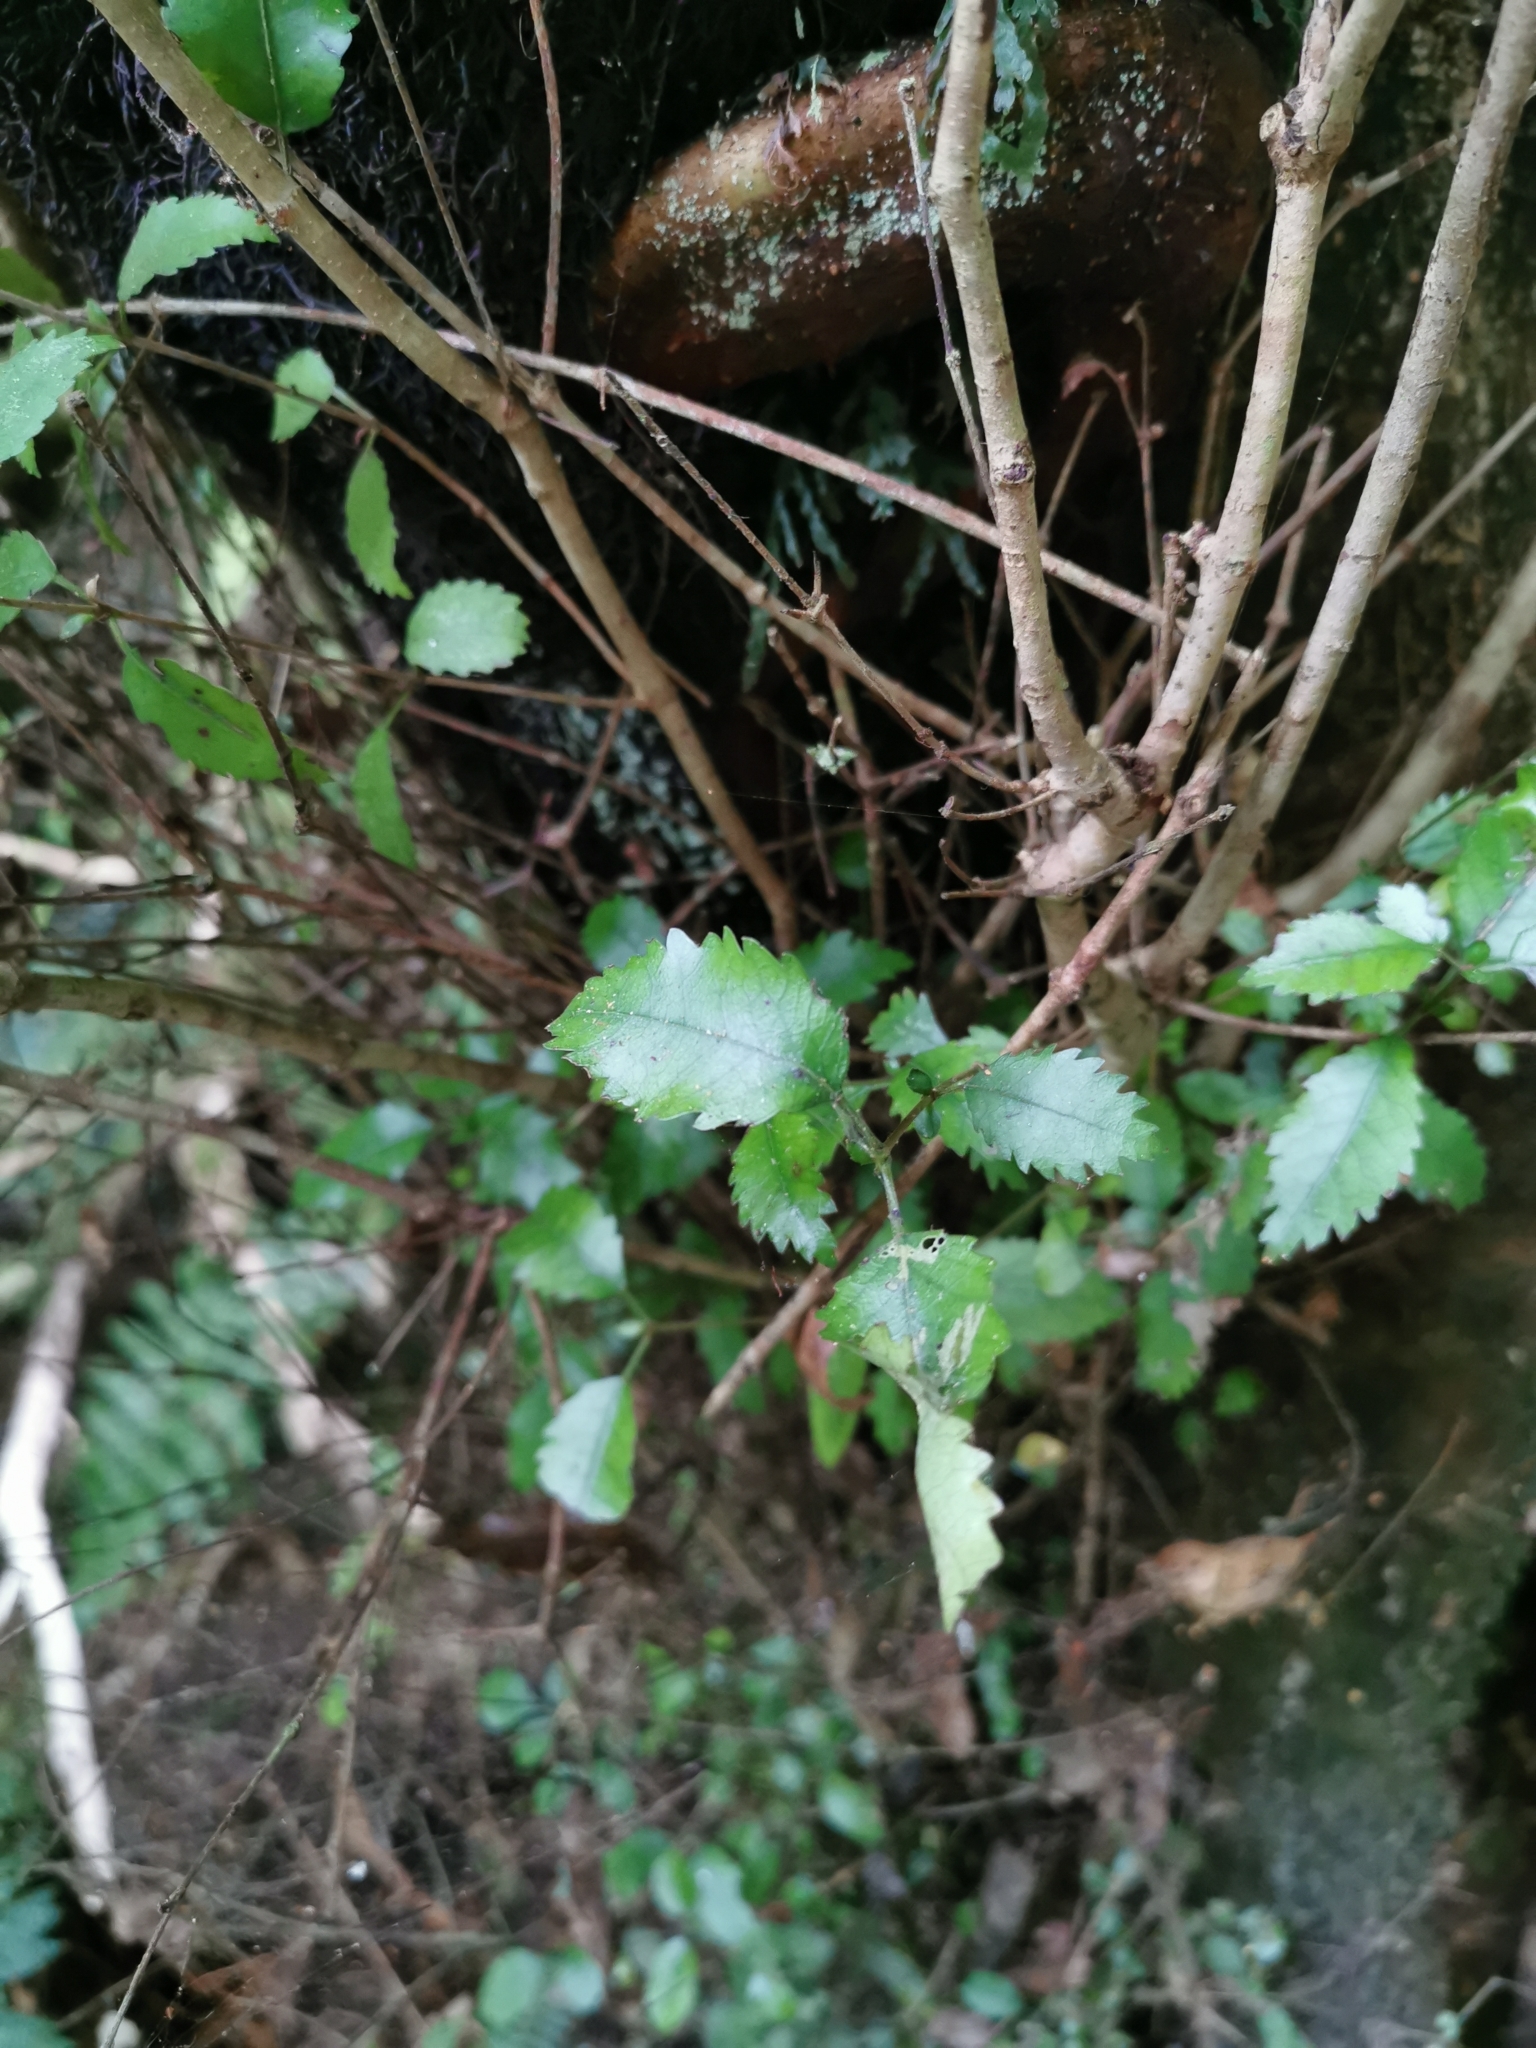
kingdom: Plantae
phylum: Tracheophyta
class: Magnoliopsida
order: Oxalidales
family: Cunoniaceae
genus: Pterophylla
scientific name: Pterophylla racemosa
